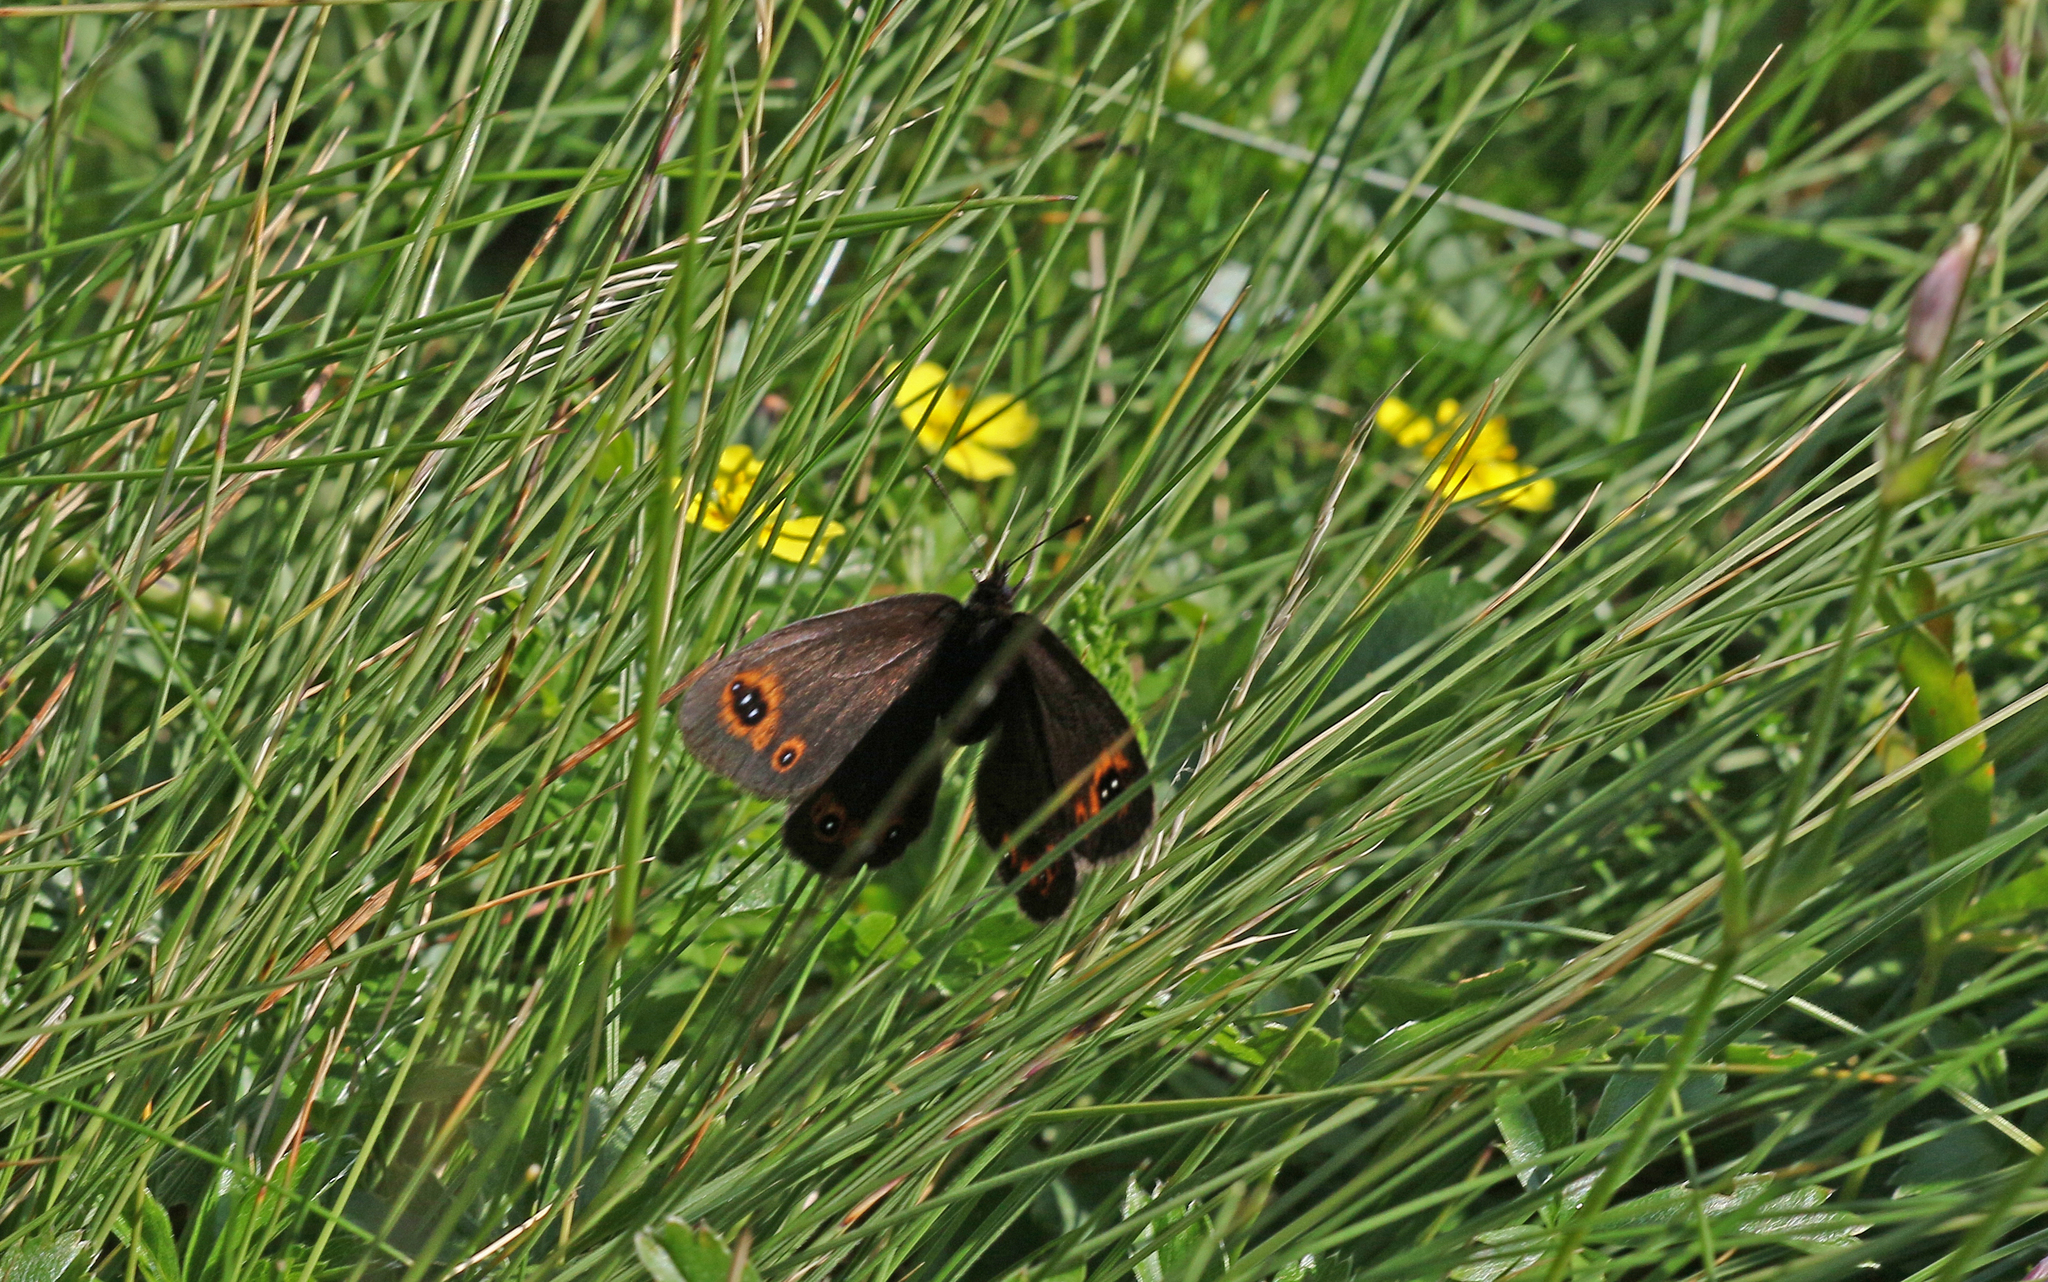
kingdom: Animalia
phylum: Arthropoda
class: Insecta
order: Lepidoptera
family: Nymphalidae
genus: Erebia
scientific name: Erebia medusa
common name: Woodland ringlet
